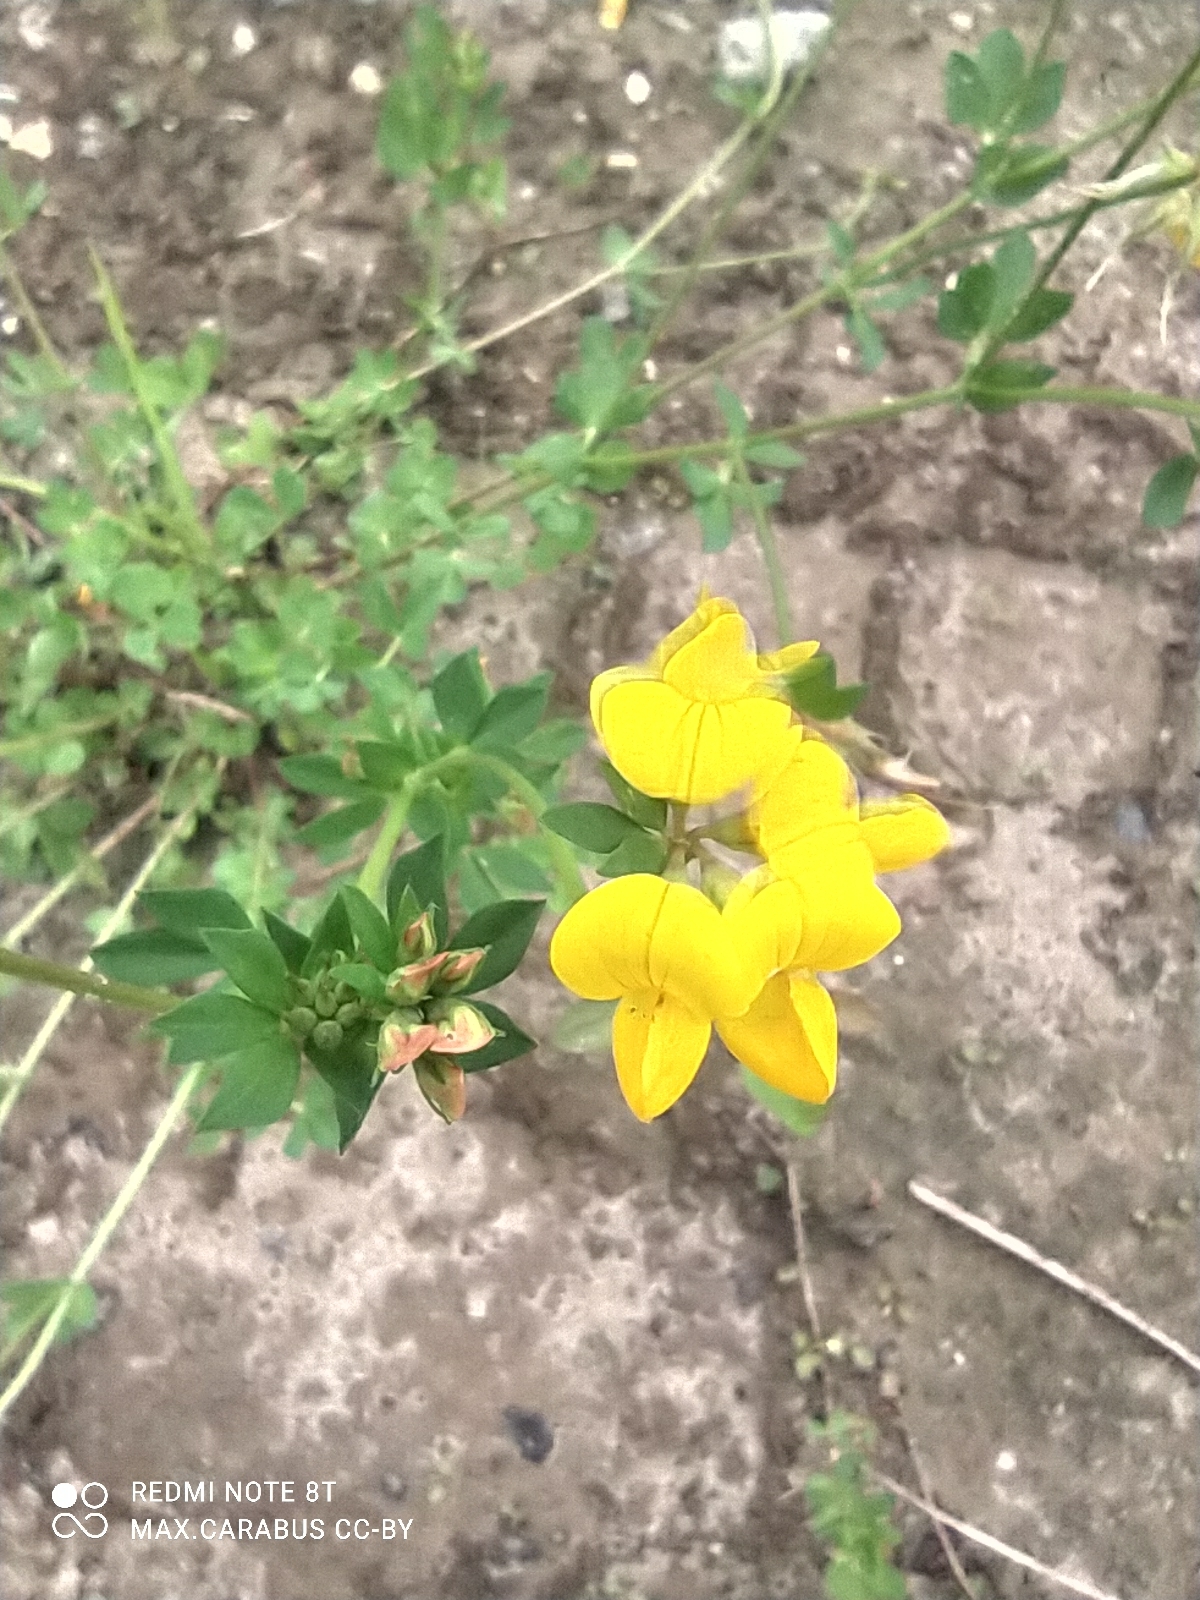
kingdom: Plantae
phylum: Tracheophyta
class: Magnoliopsida
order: Fabales
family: Fabaceae
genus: Lotus
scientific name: Lotus corniculatus
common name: Common bird's-foot-trefoil
